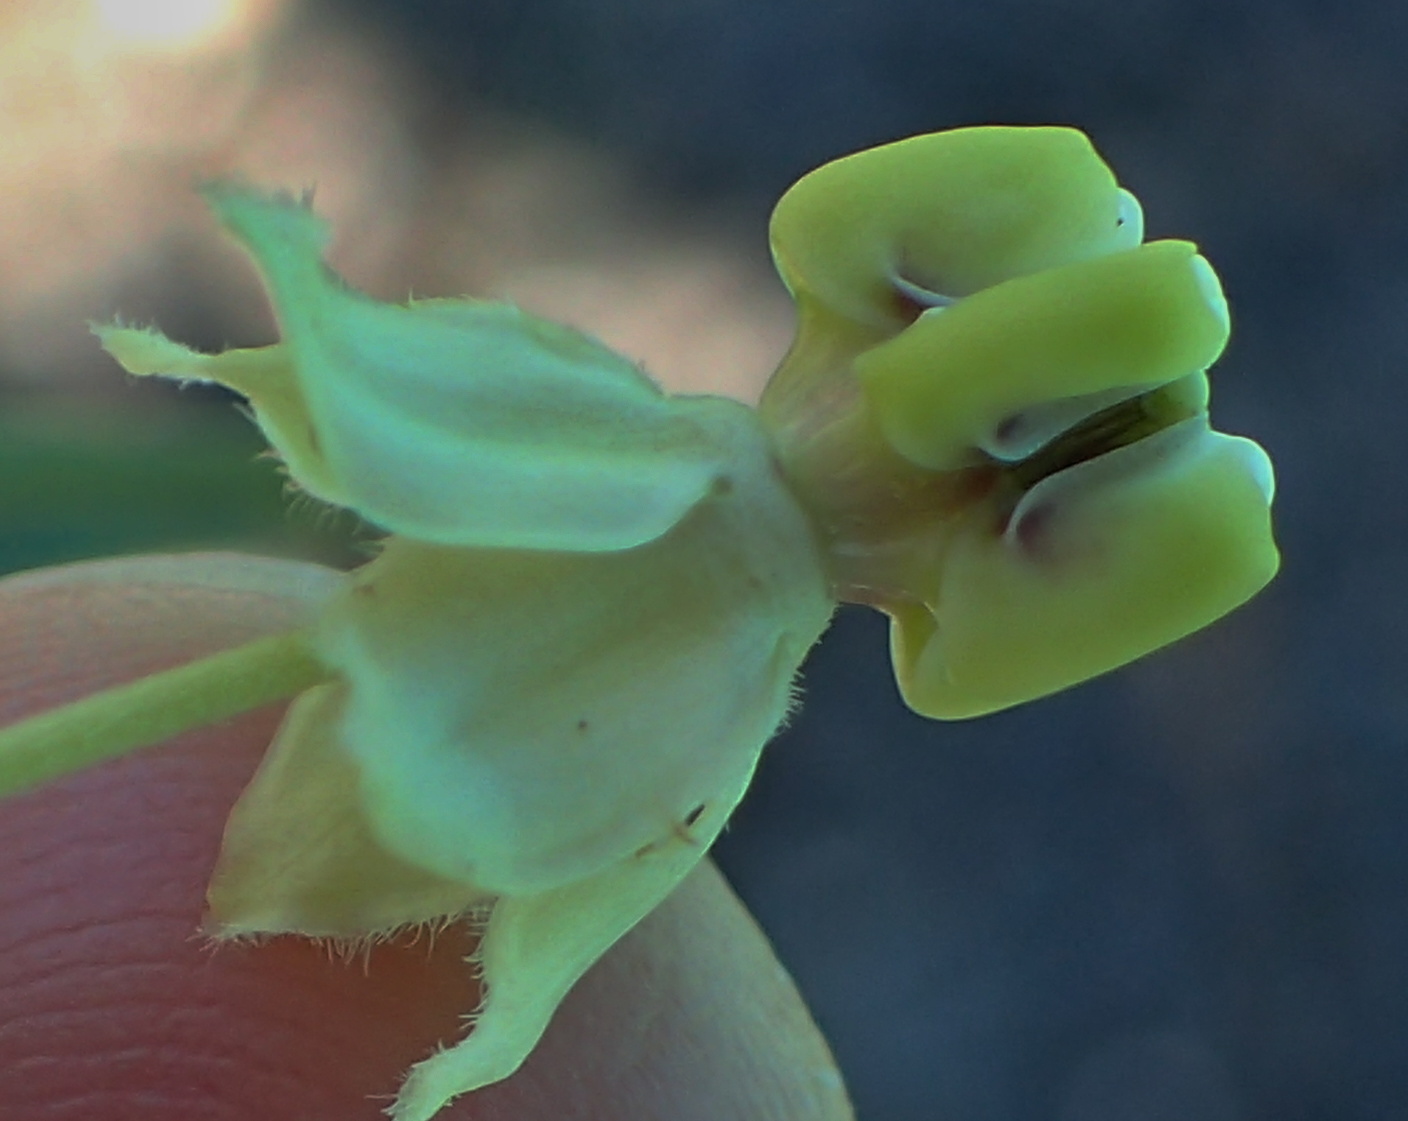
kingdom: Plantae
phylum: Tracheophyta
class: Magnoliopsida
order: Gentianales
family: Apocynaceae
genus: Gomphocarpus
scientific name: Gomphocarpus fruticosus
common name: Milkweed
